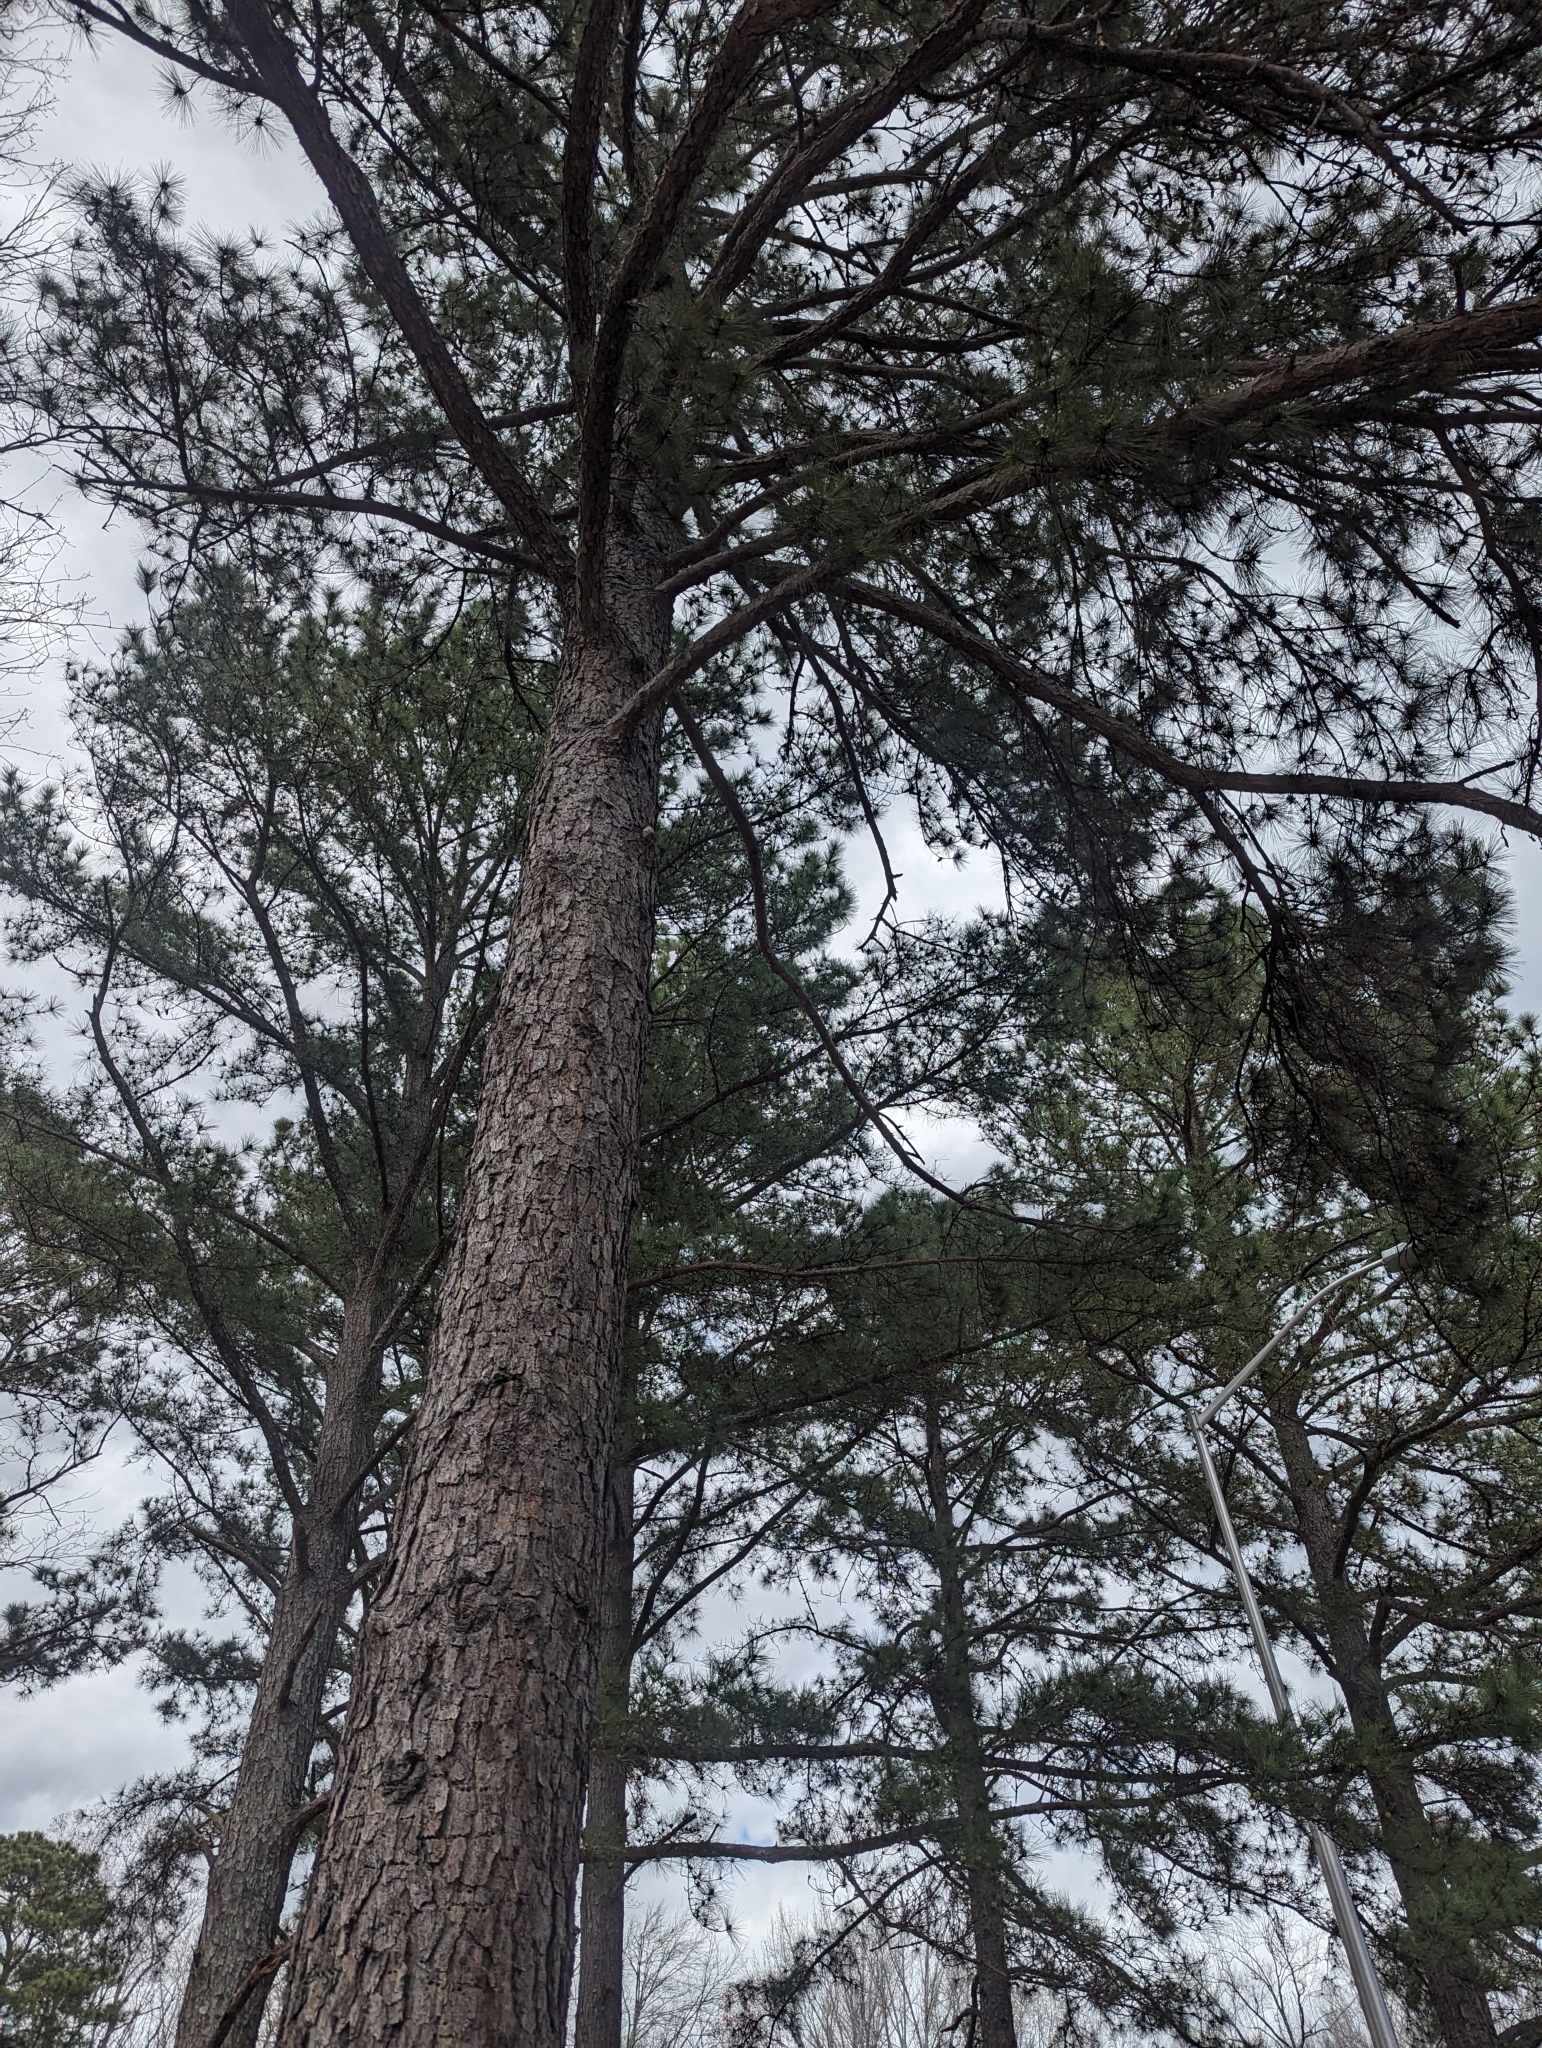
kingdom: Plantae
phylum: Tracheophyta
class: Pinopsida
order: Pinales
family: Pinaceae
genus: Pinus
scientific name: Pinus taeda
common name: Loblolly pine
